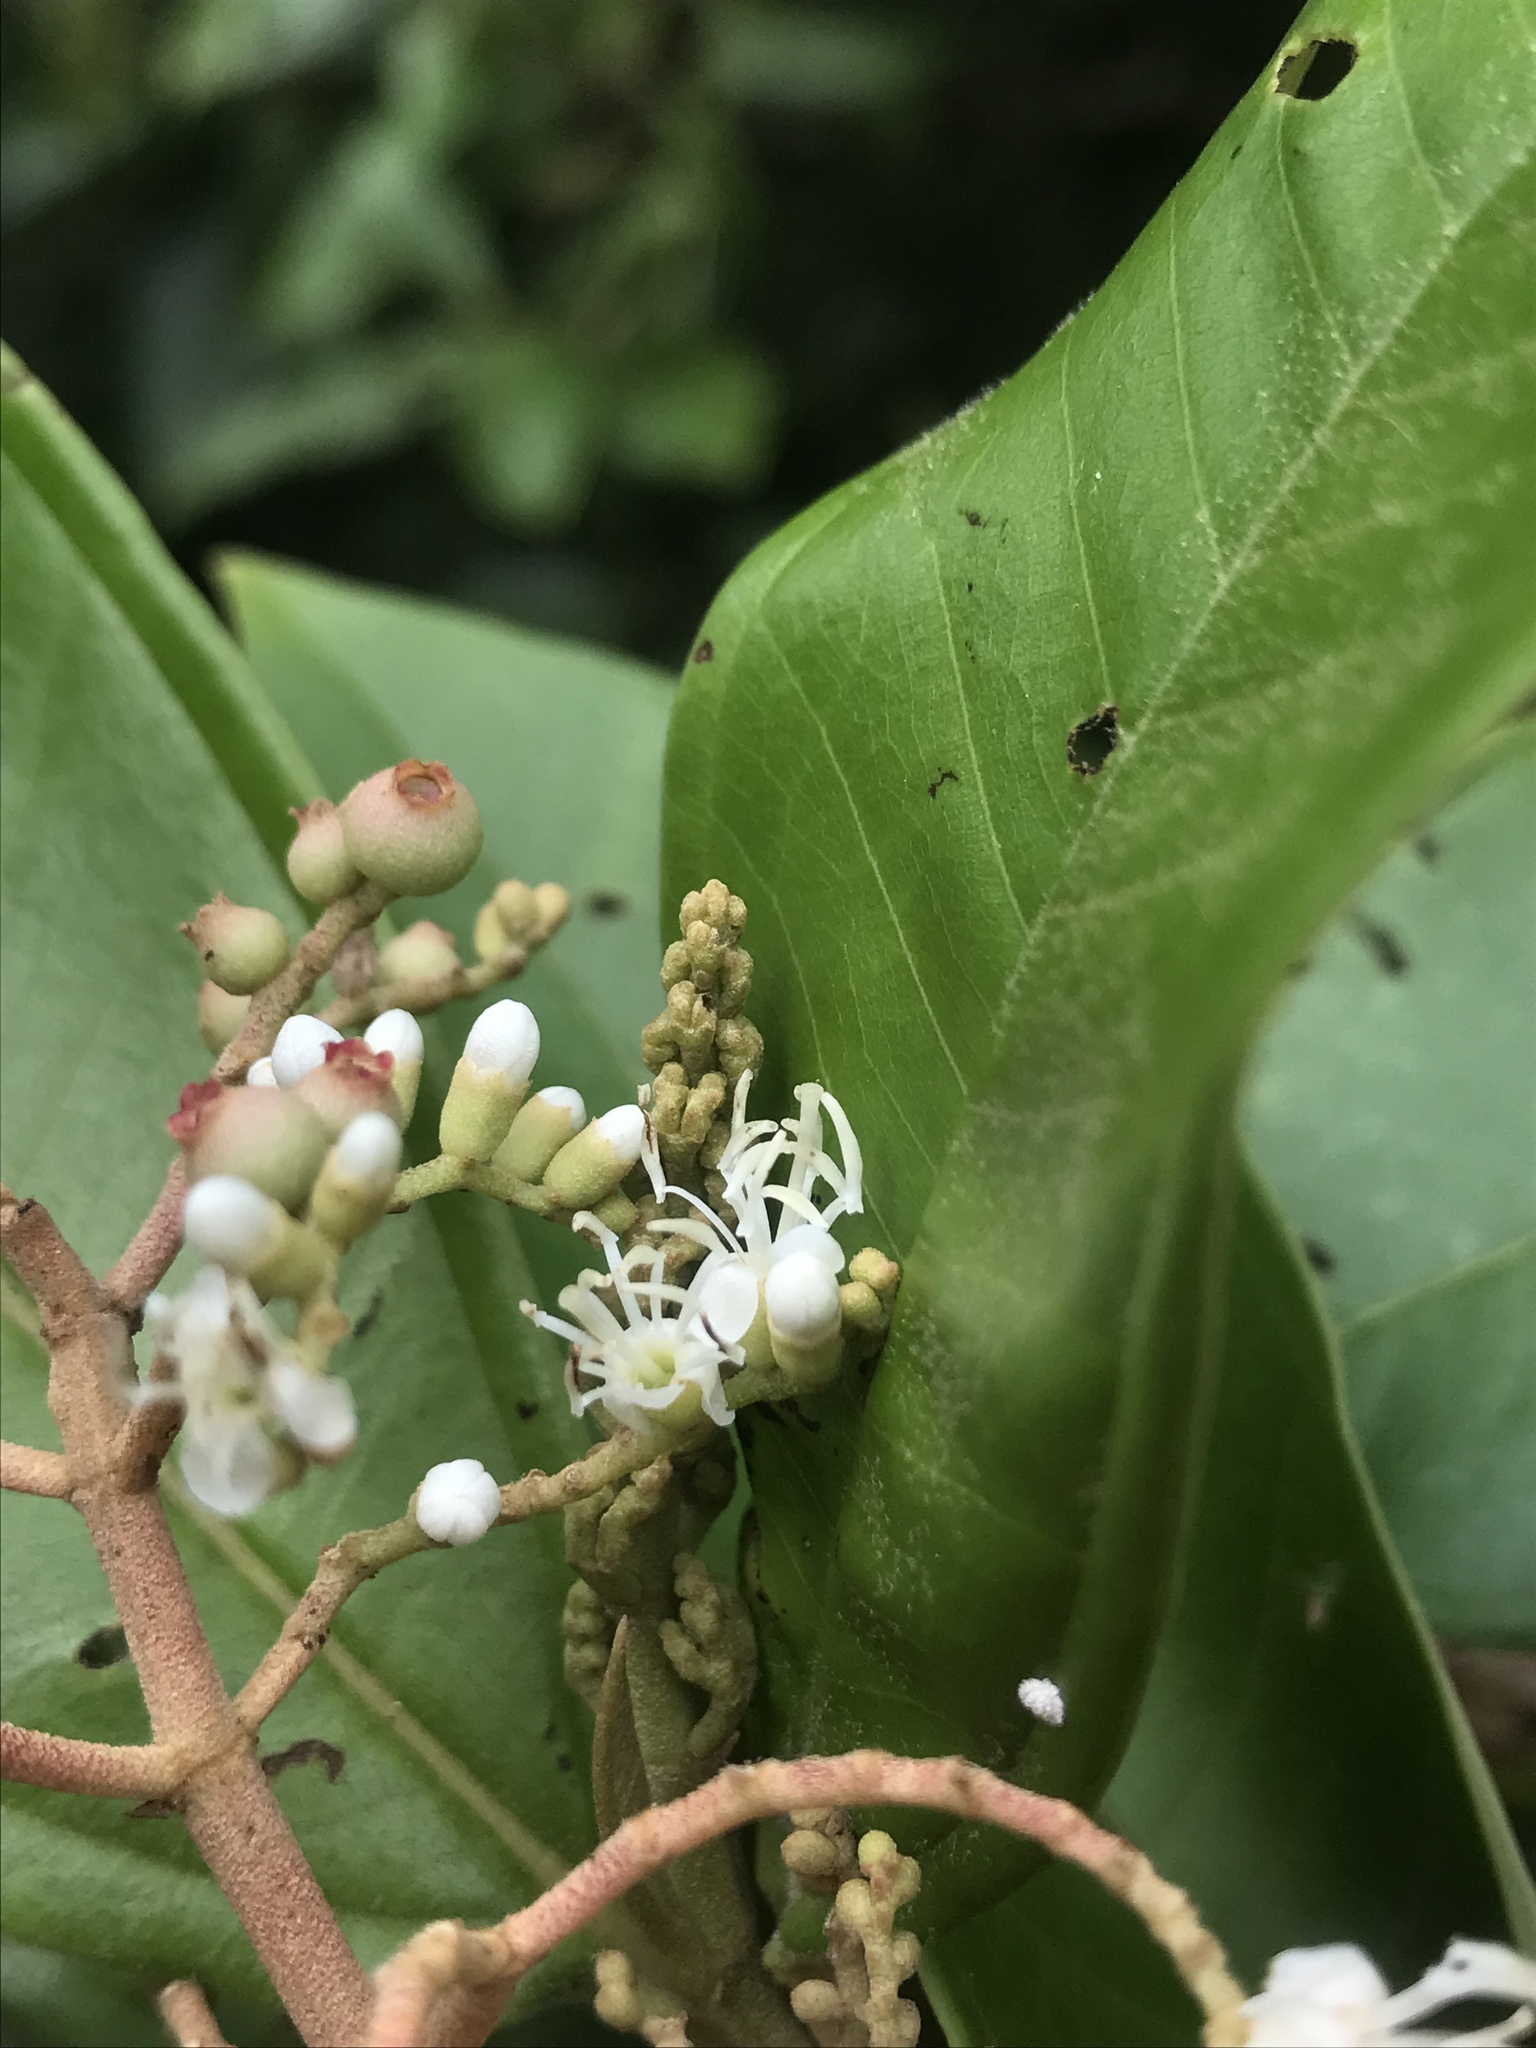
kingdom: Plantae
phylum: Tracheophyta
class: Magnoliopsida
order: Myrtales
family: Melastomataceae
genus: Miconia
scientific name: Miconia trinervia
